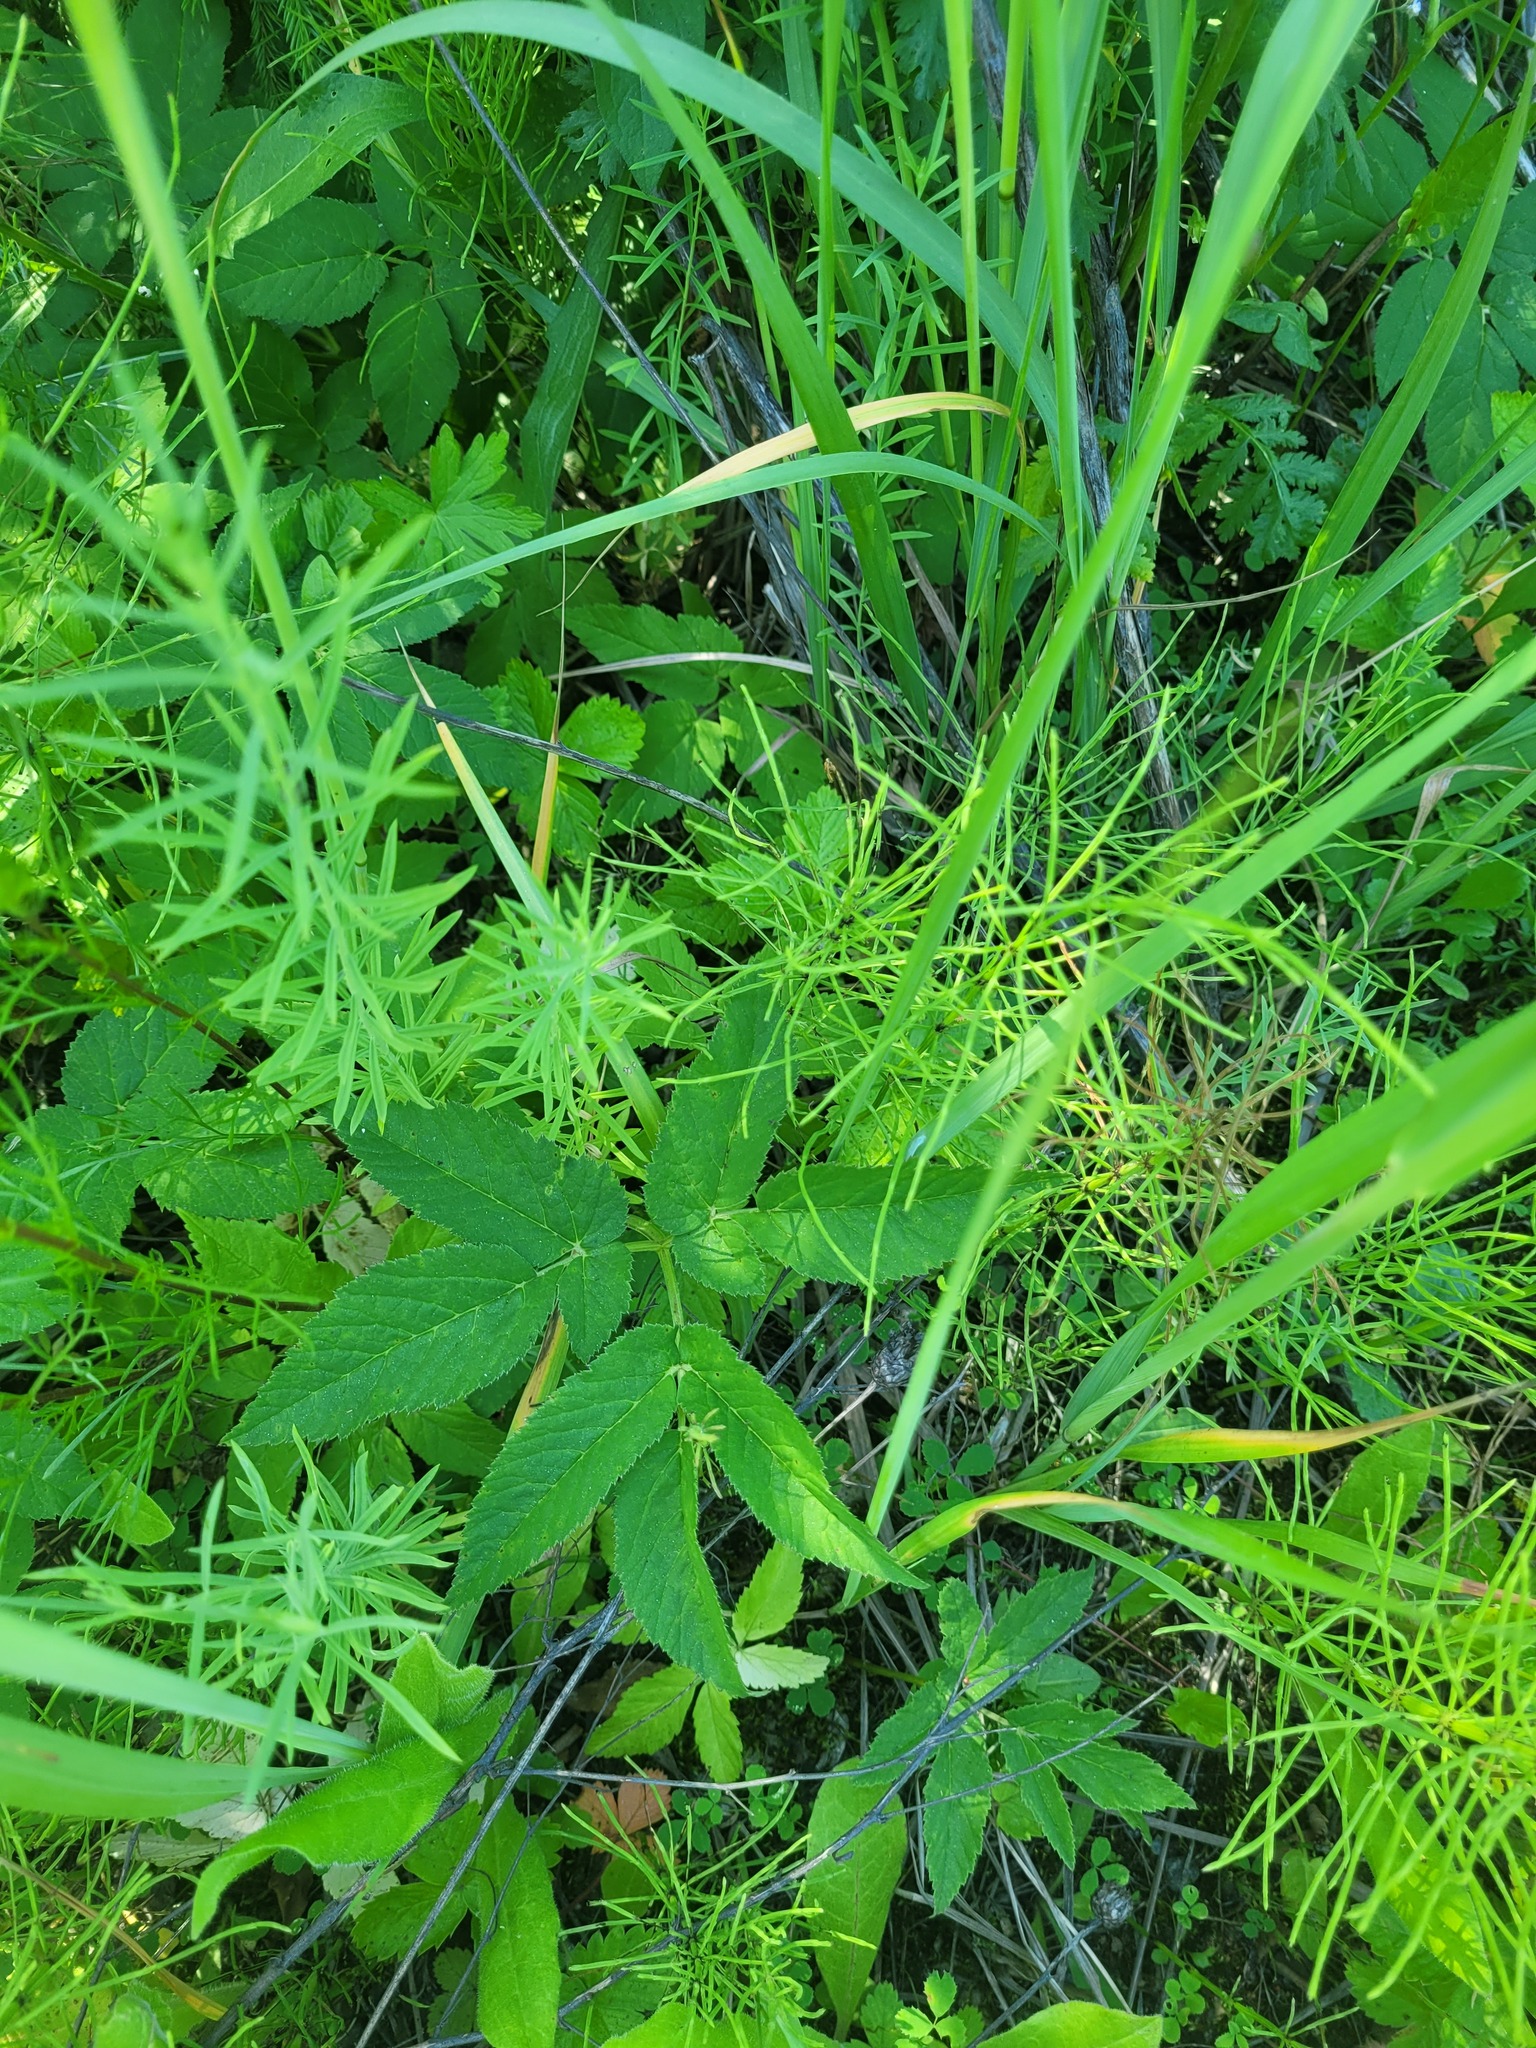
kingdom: Plantae
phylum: Tracheophyta
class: Magnoliopsida
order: Apiales
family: Apiaceae
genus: Aegopodium
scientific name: Aegopodium podagraria
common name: Ground-elder
